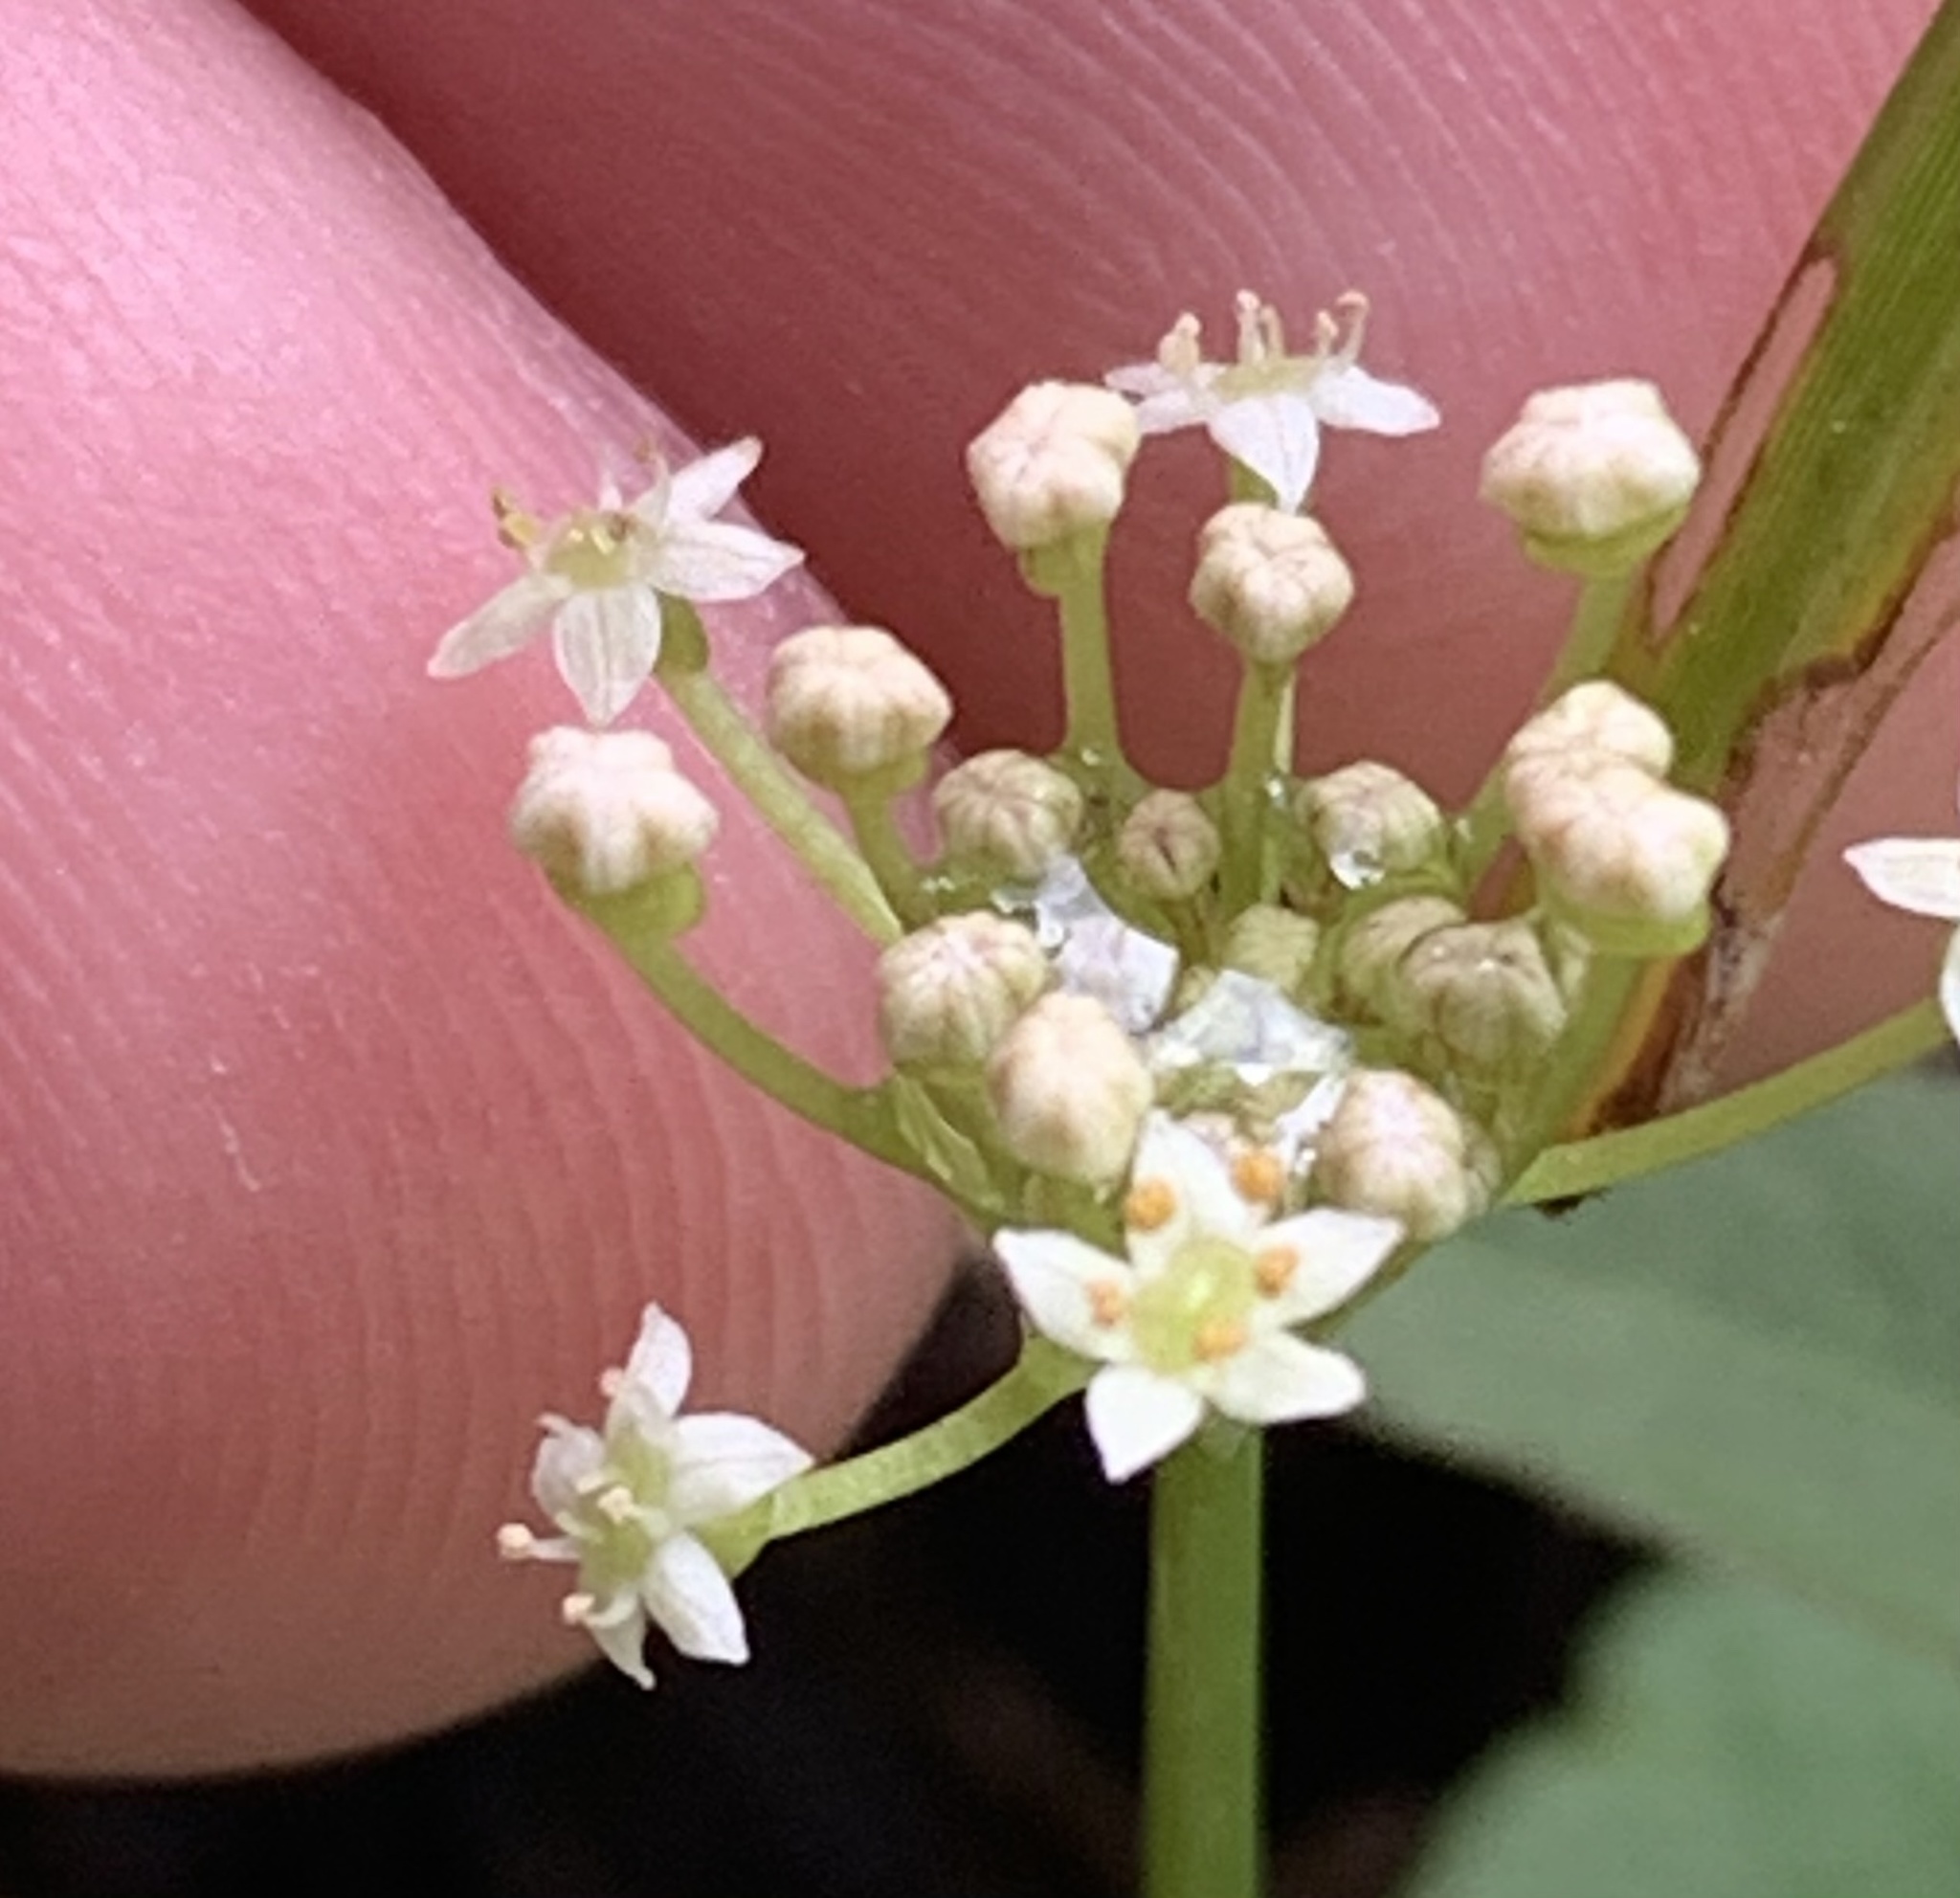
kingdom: Plantae
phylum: Tracheophyta
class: Magnoliopsida
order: Apiales
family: Araliaceae
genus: Hydrocotyle
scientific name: Hydrocotyle umbellata
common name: Water pennywort
